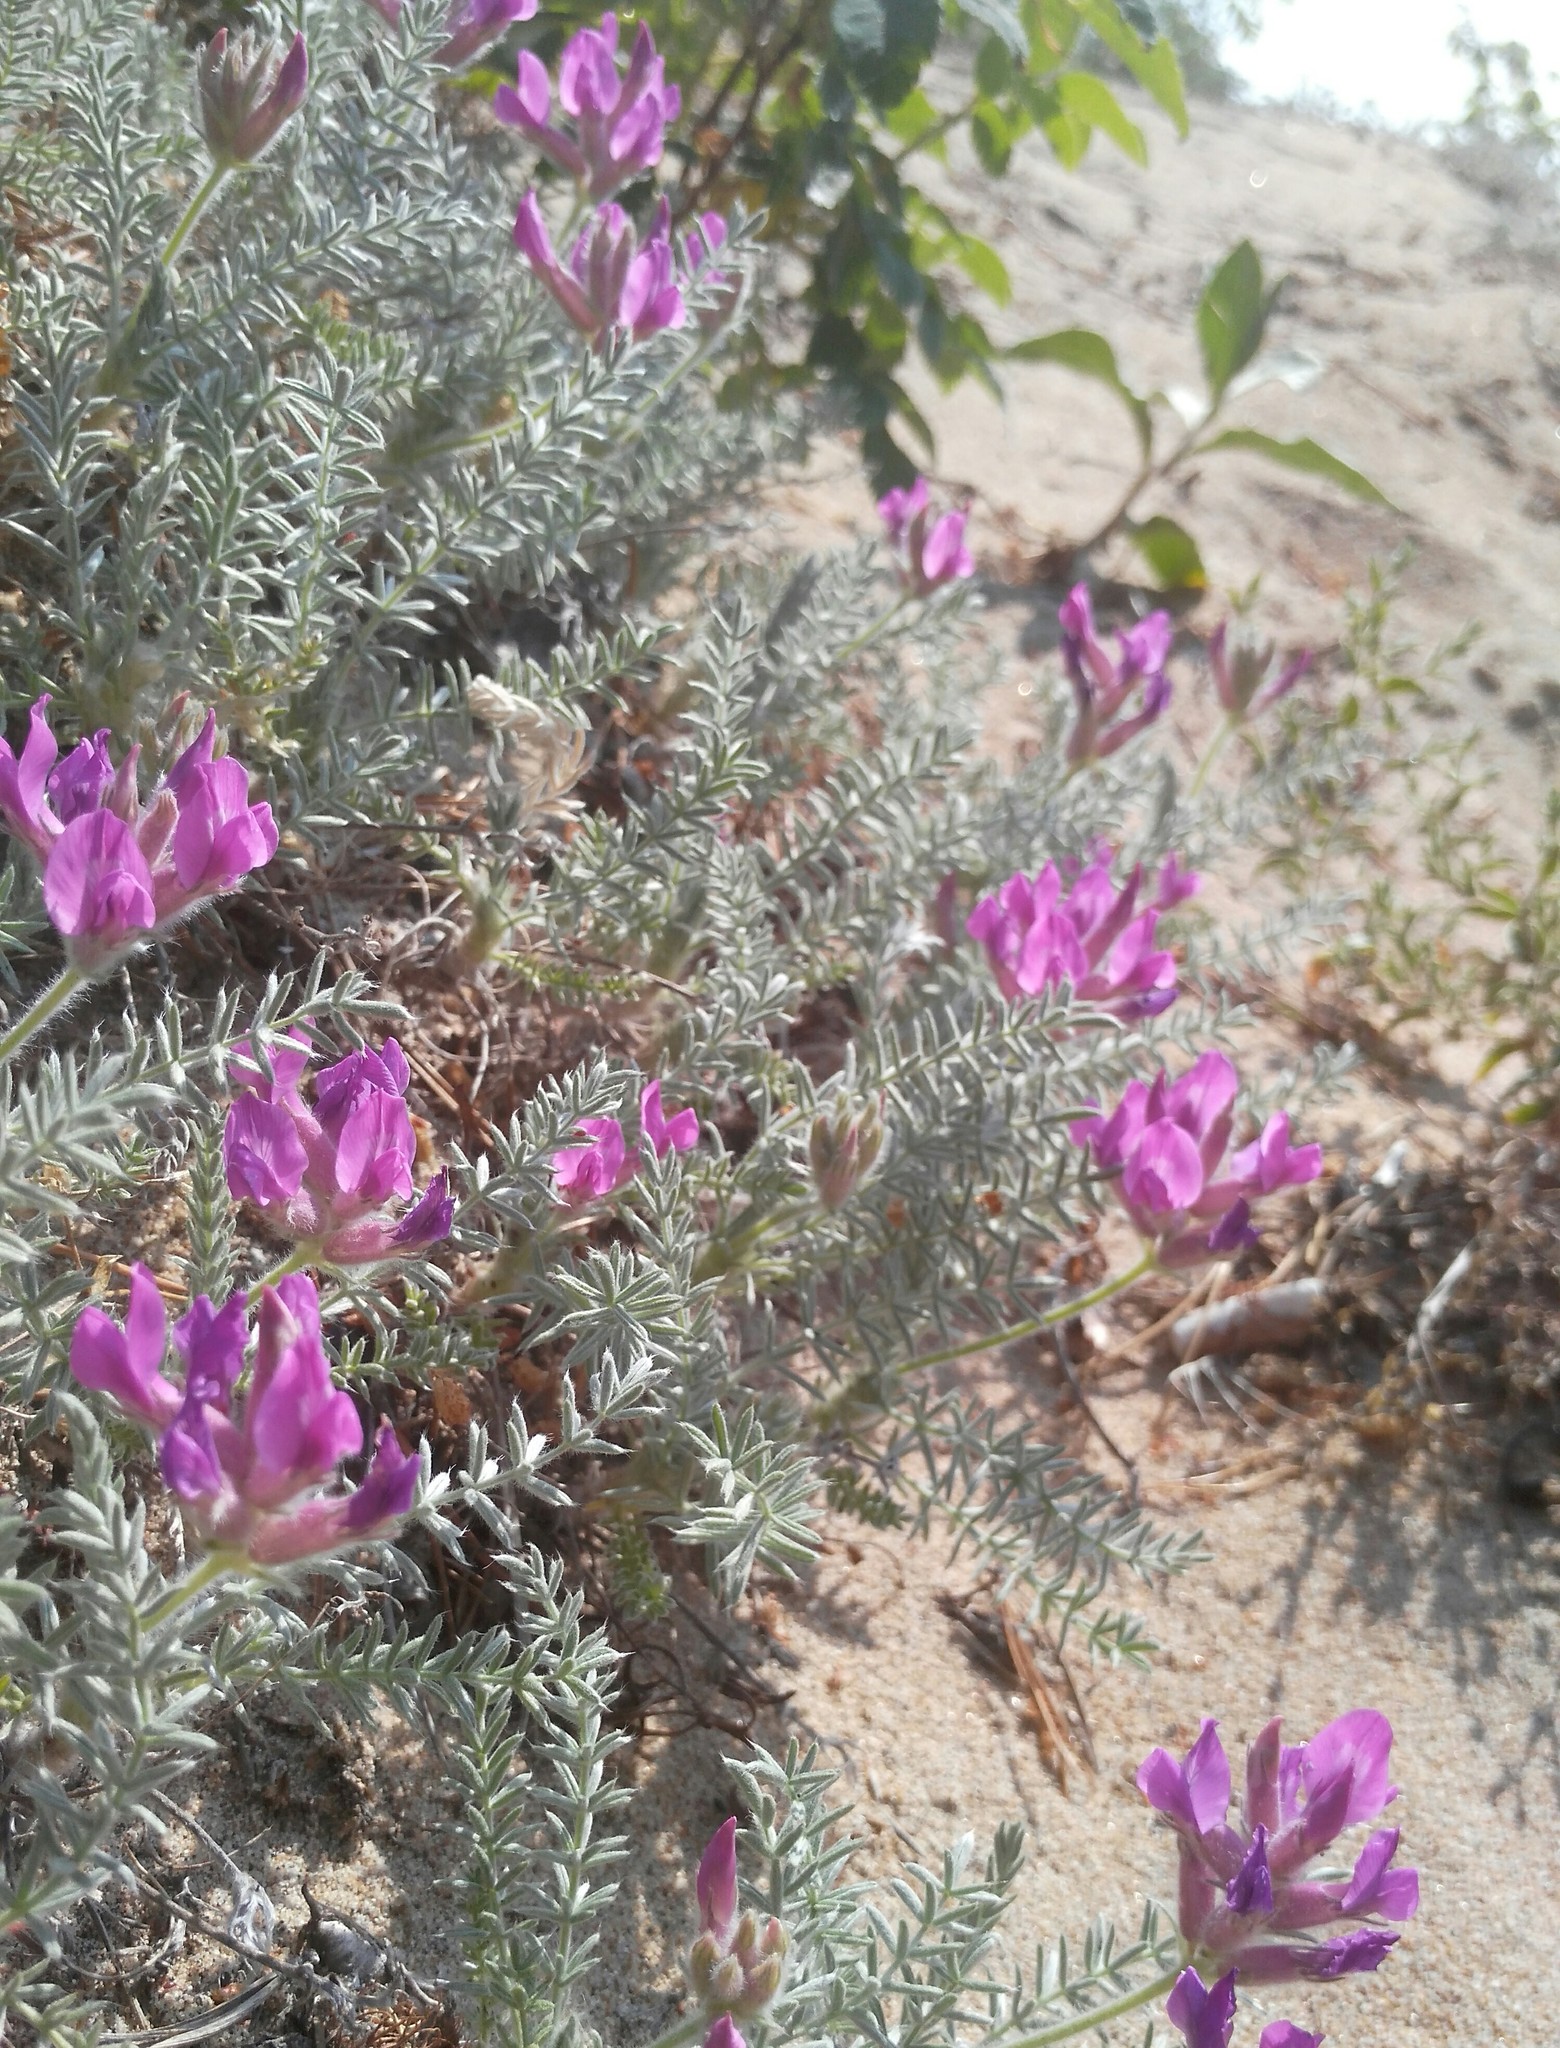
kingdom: Plantae
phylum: Tracheophyta
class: Magnoliopsida
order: Fabales
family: Fabaceae
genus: Oxytropis
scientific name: Oxytropis lanata
